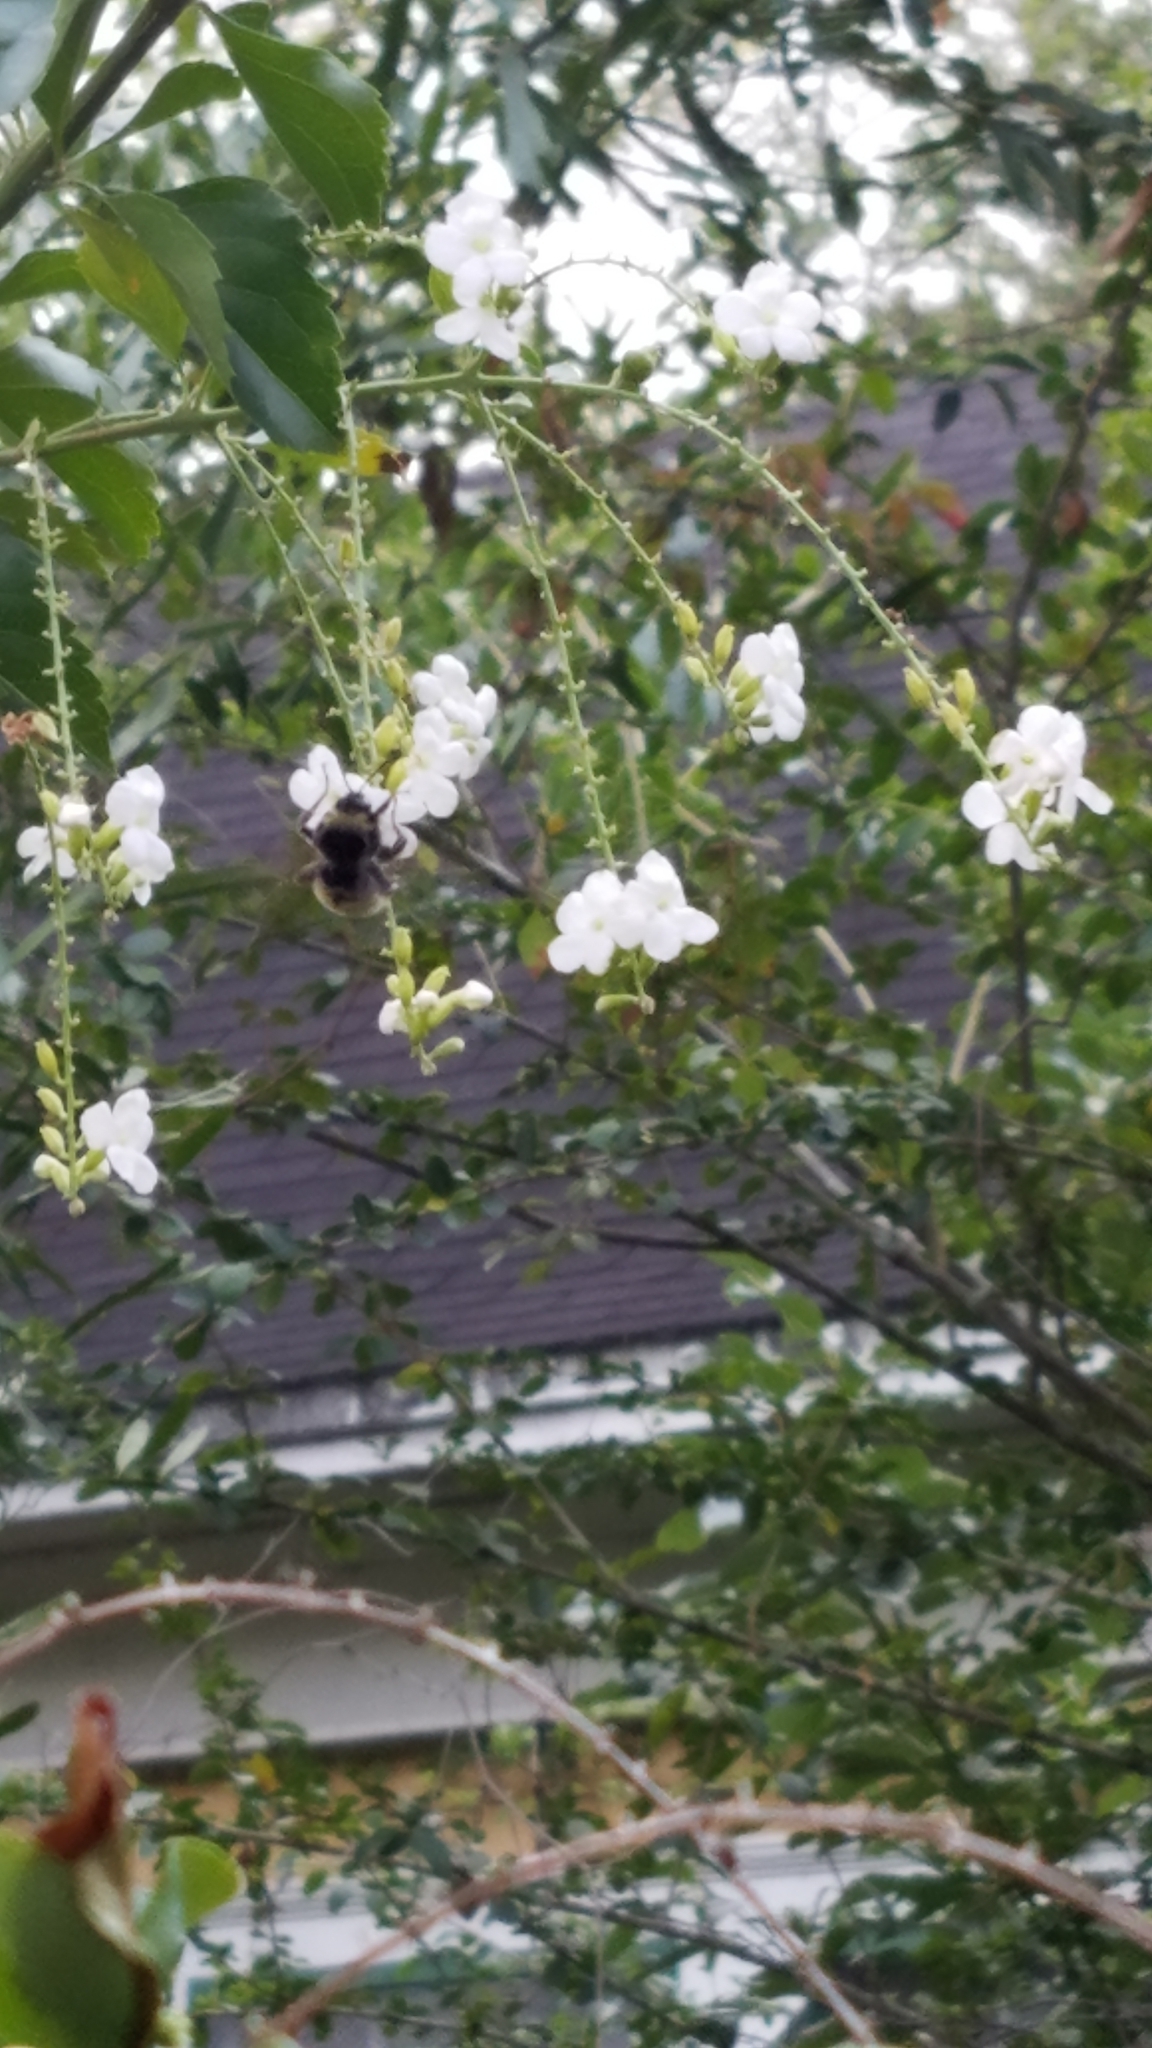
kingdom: Animalia
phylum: Arthropoda
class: Insecta
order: Hymenoptera
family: Apidae
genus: Bombus
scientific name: Bombus pensylvanicus
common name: Bumble bee
